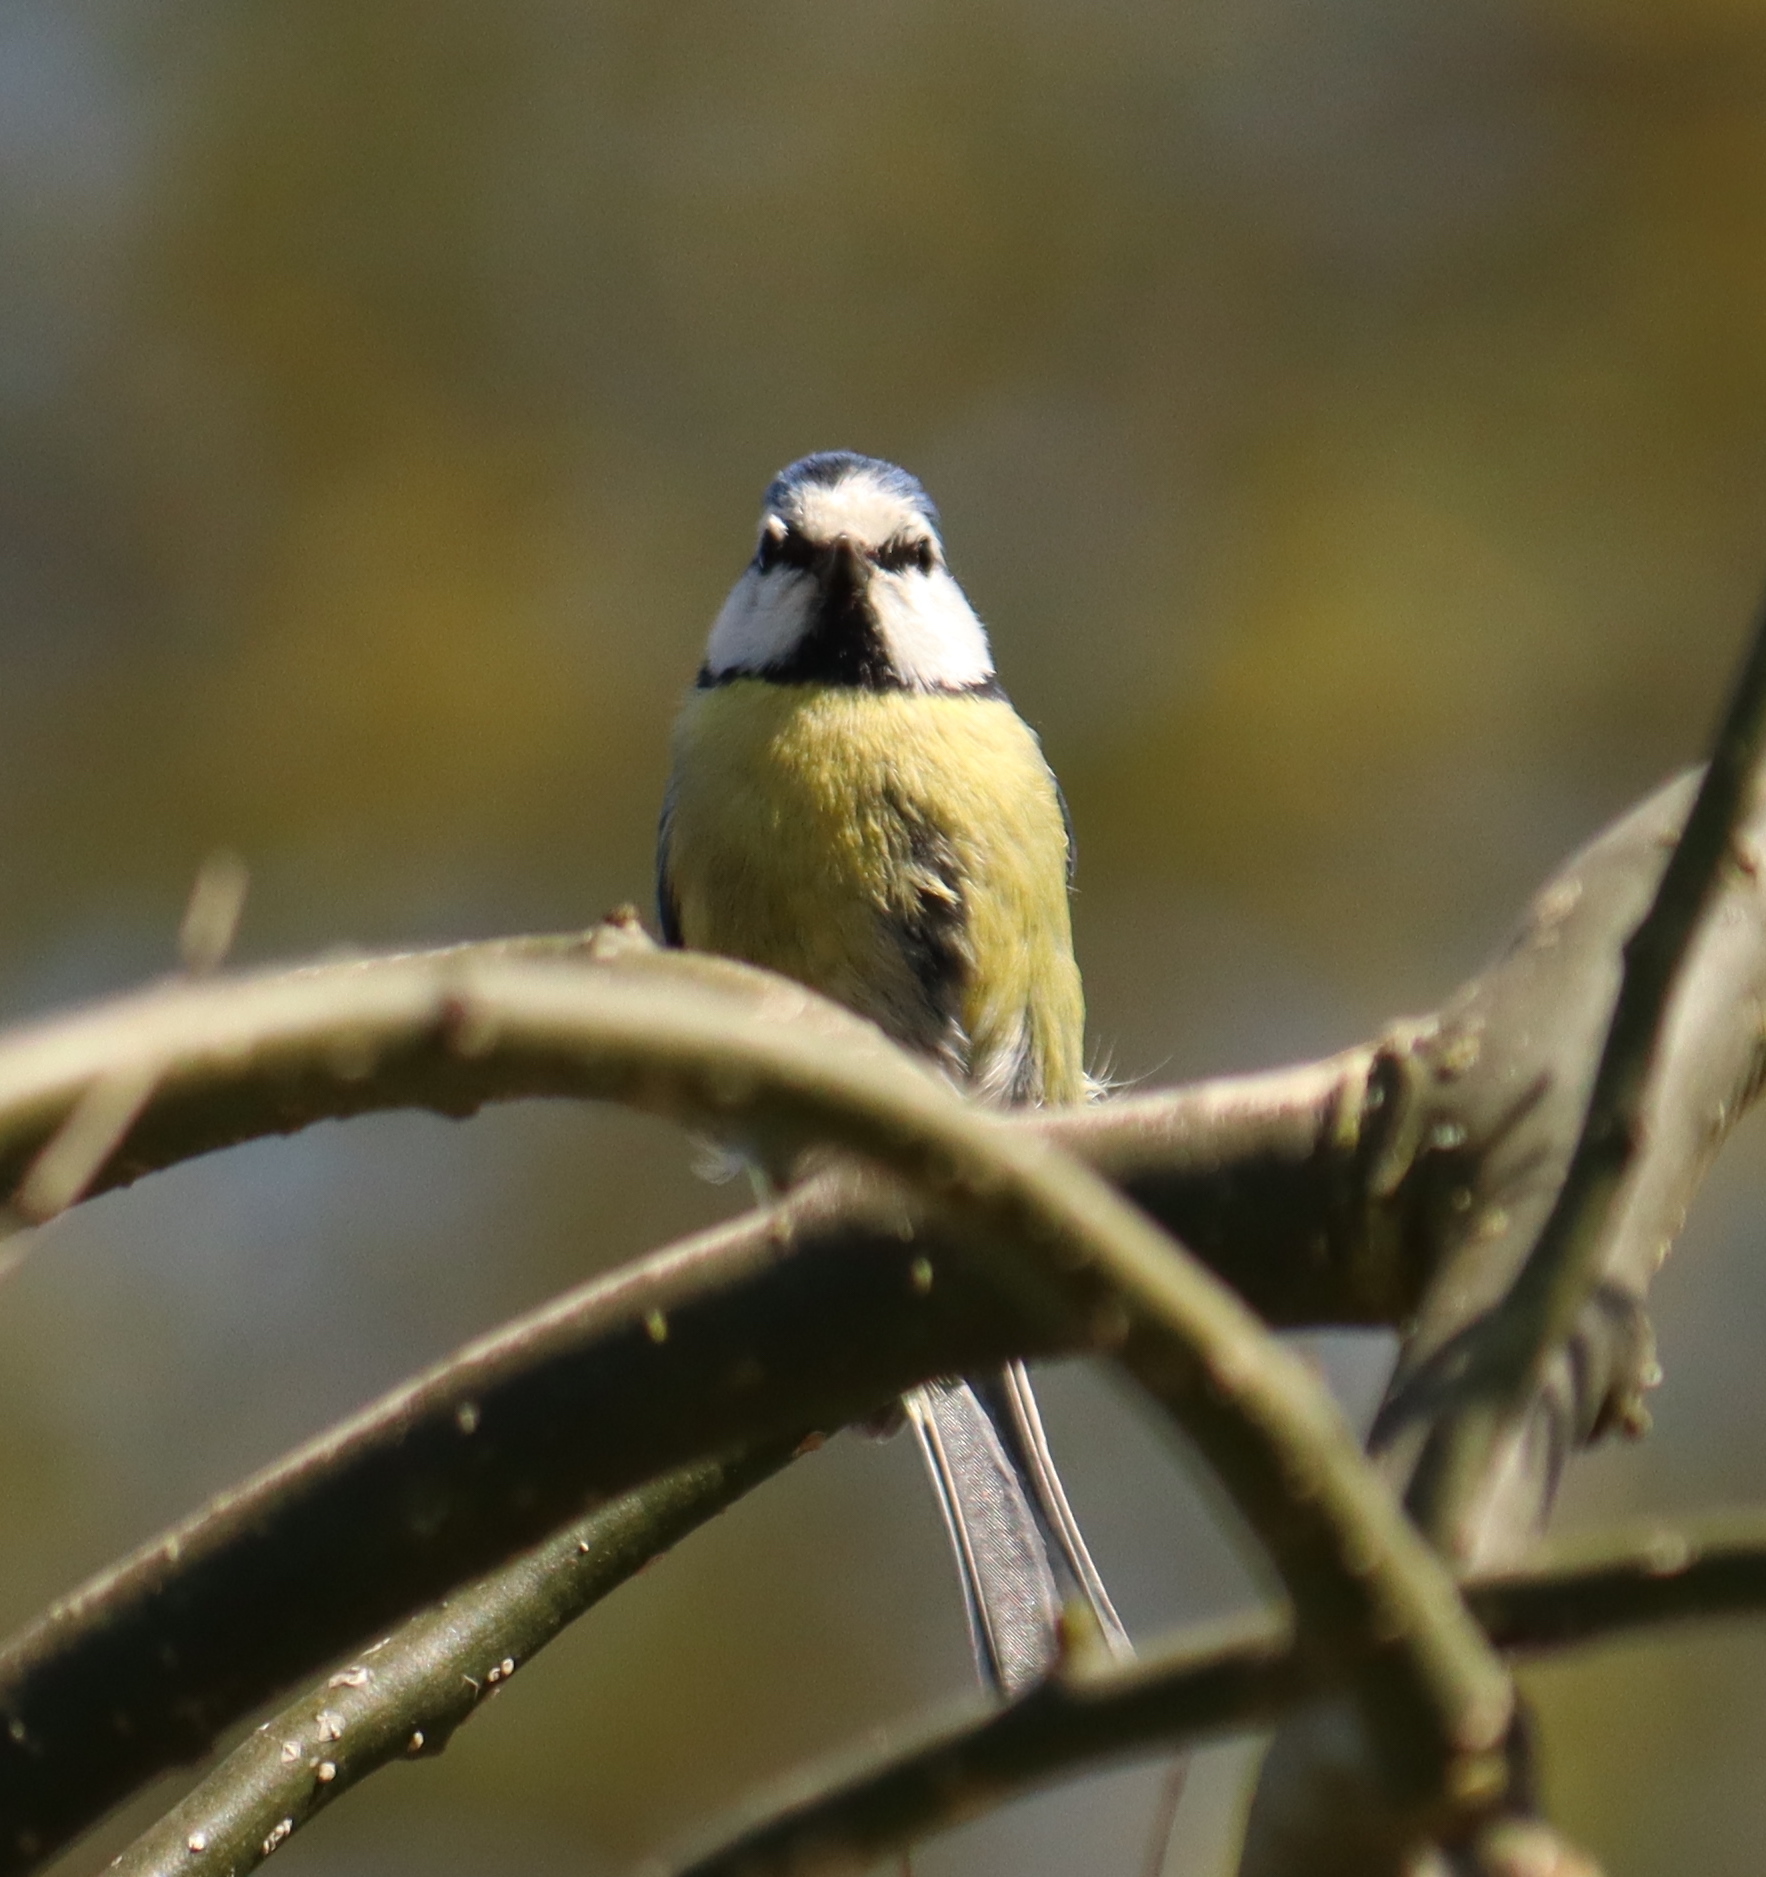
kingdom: Animalia
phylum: Chordata
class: Aves
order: Passeriformes
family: Paridae
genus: Cyanistes
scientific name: Cyanistes caeruleus
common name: Eurasian blue tit
